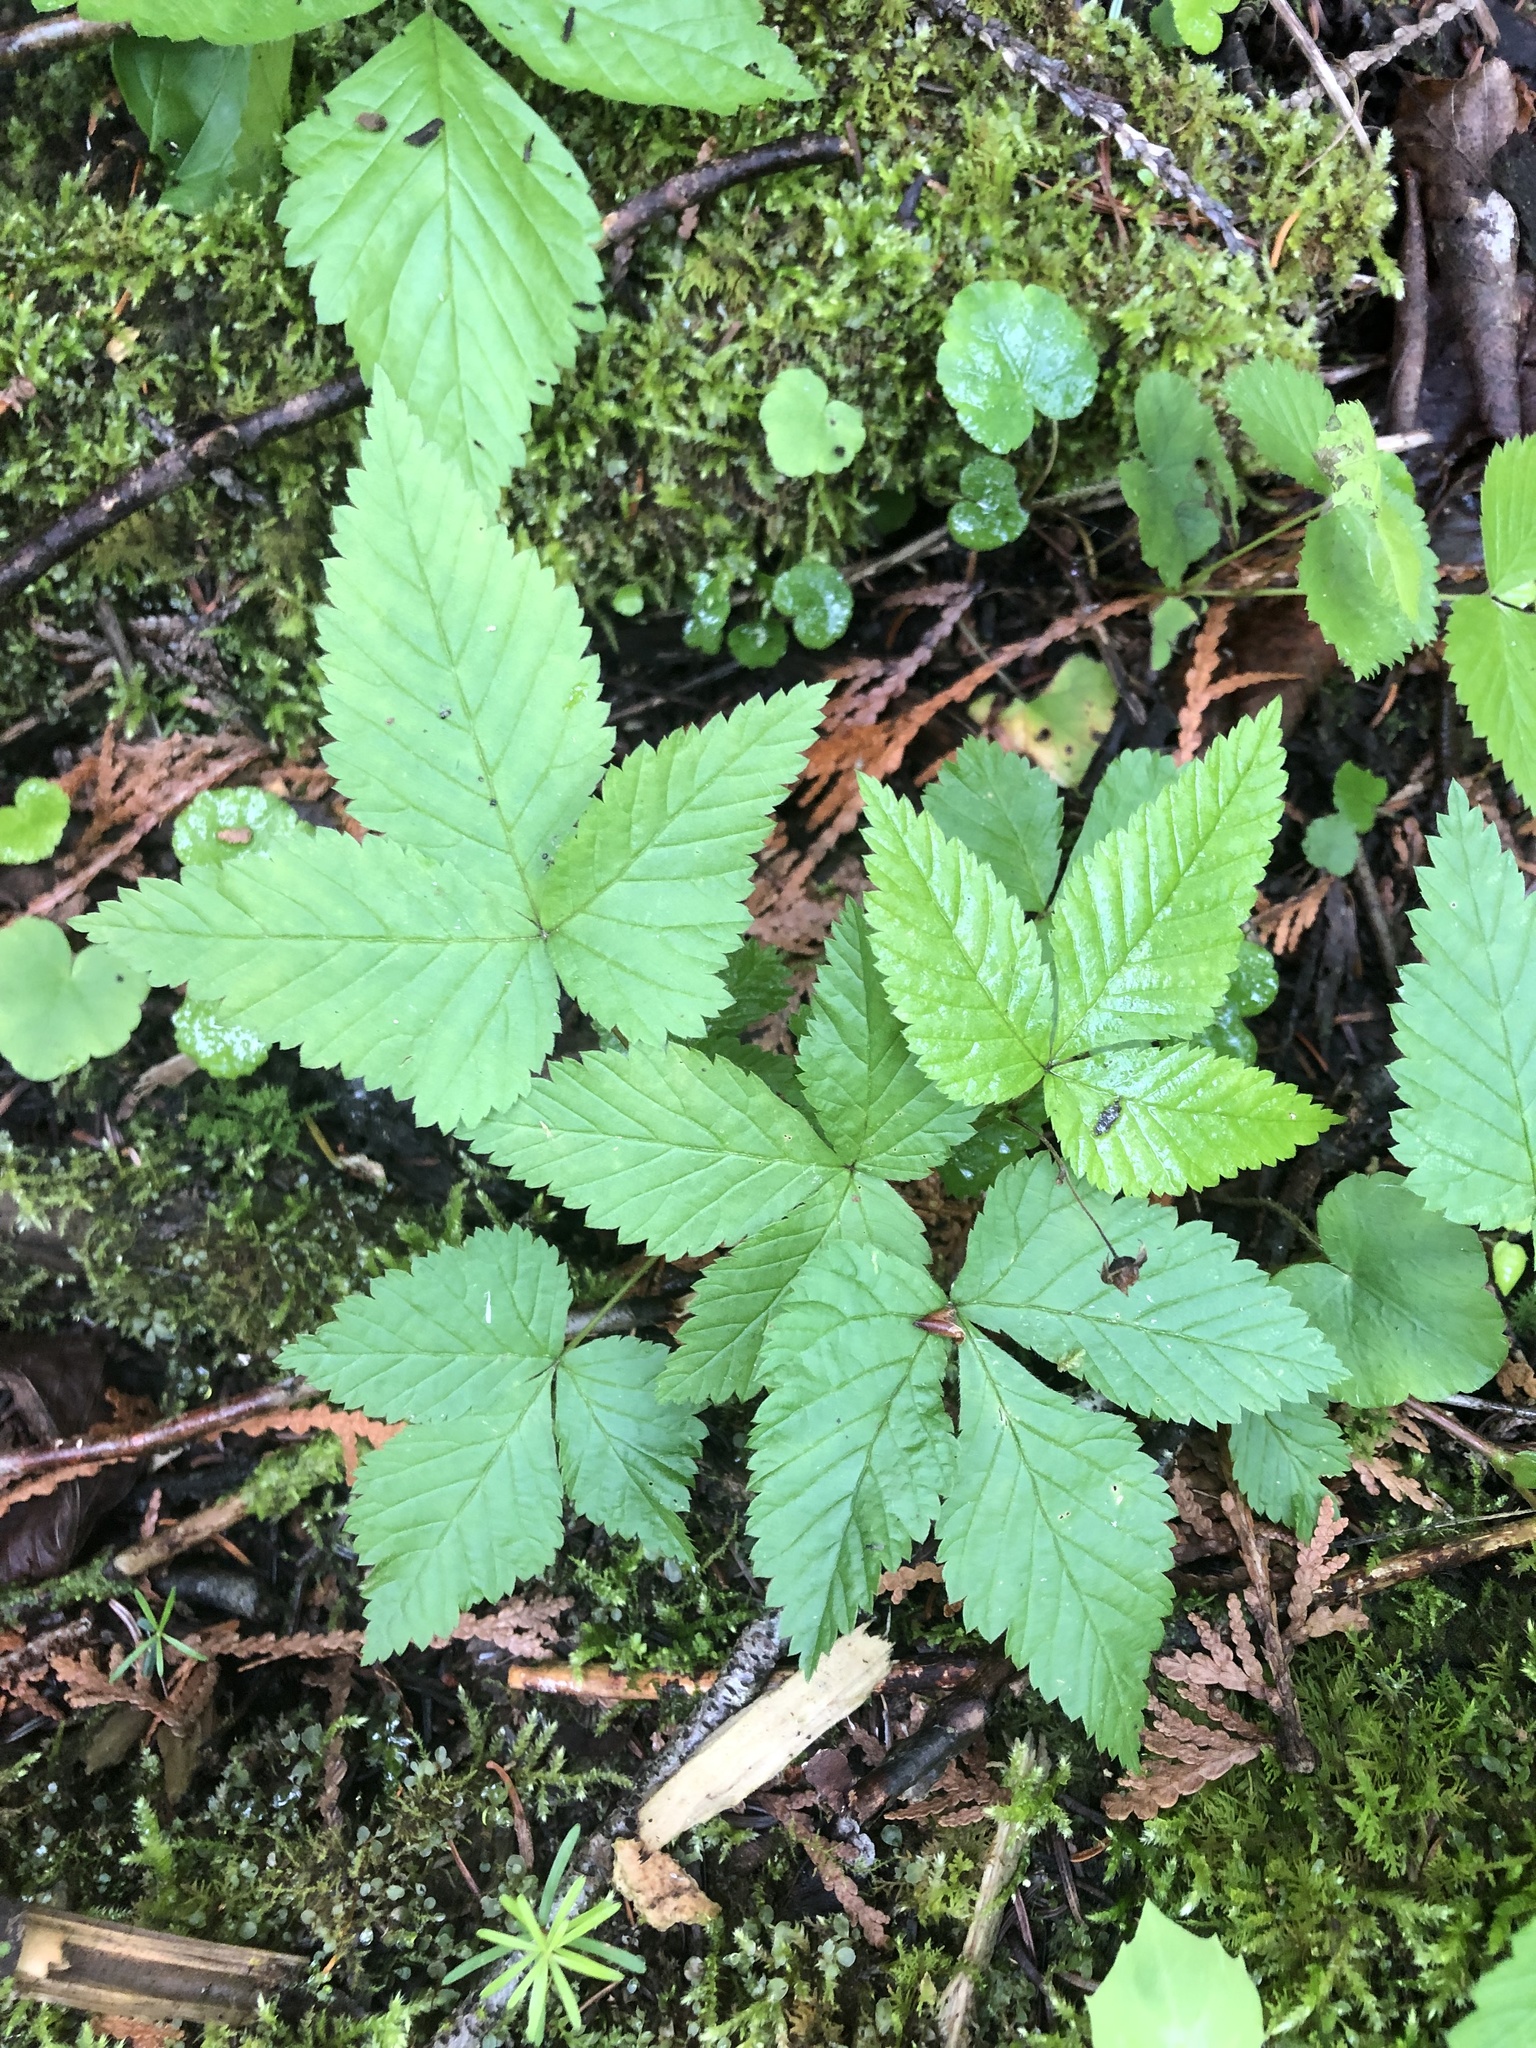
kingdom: Plantae
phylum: Tracheophyta
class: Magnoliopsida
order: Rosales
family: Rosaceae
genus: Rubus
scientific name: Rubus pubescens
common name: Dwarf raspberry
